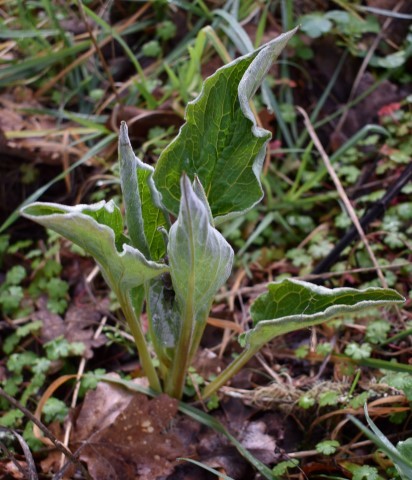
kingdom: Plantae
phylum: Tracheophyta
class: Magnoliopsida
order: Boraginales
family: Boraginaceae
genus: Adelinia
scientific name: Adelinia grande
